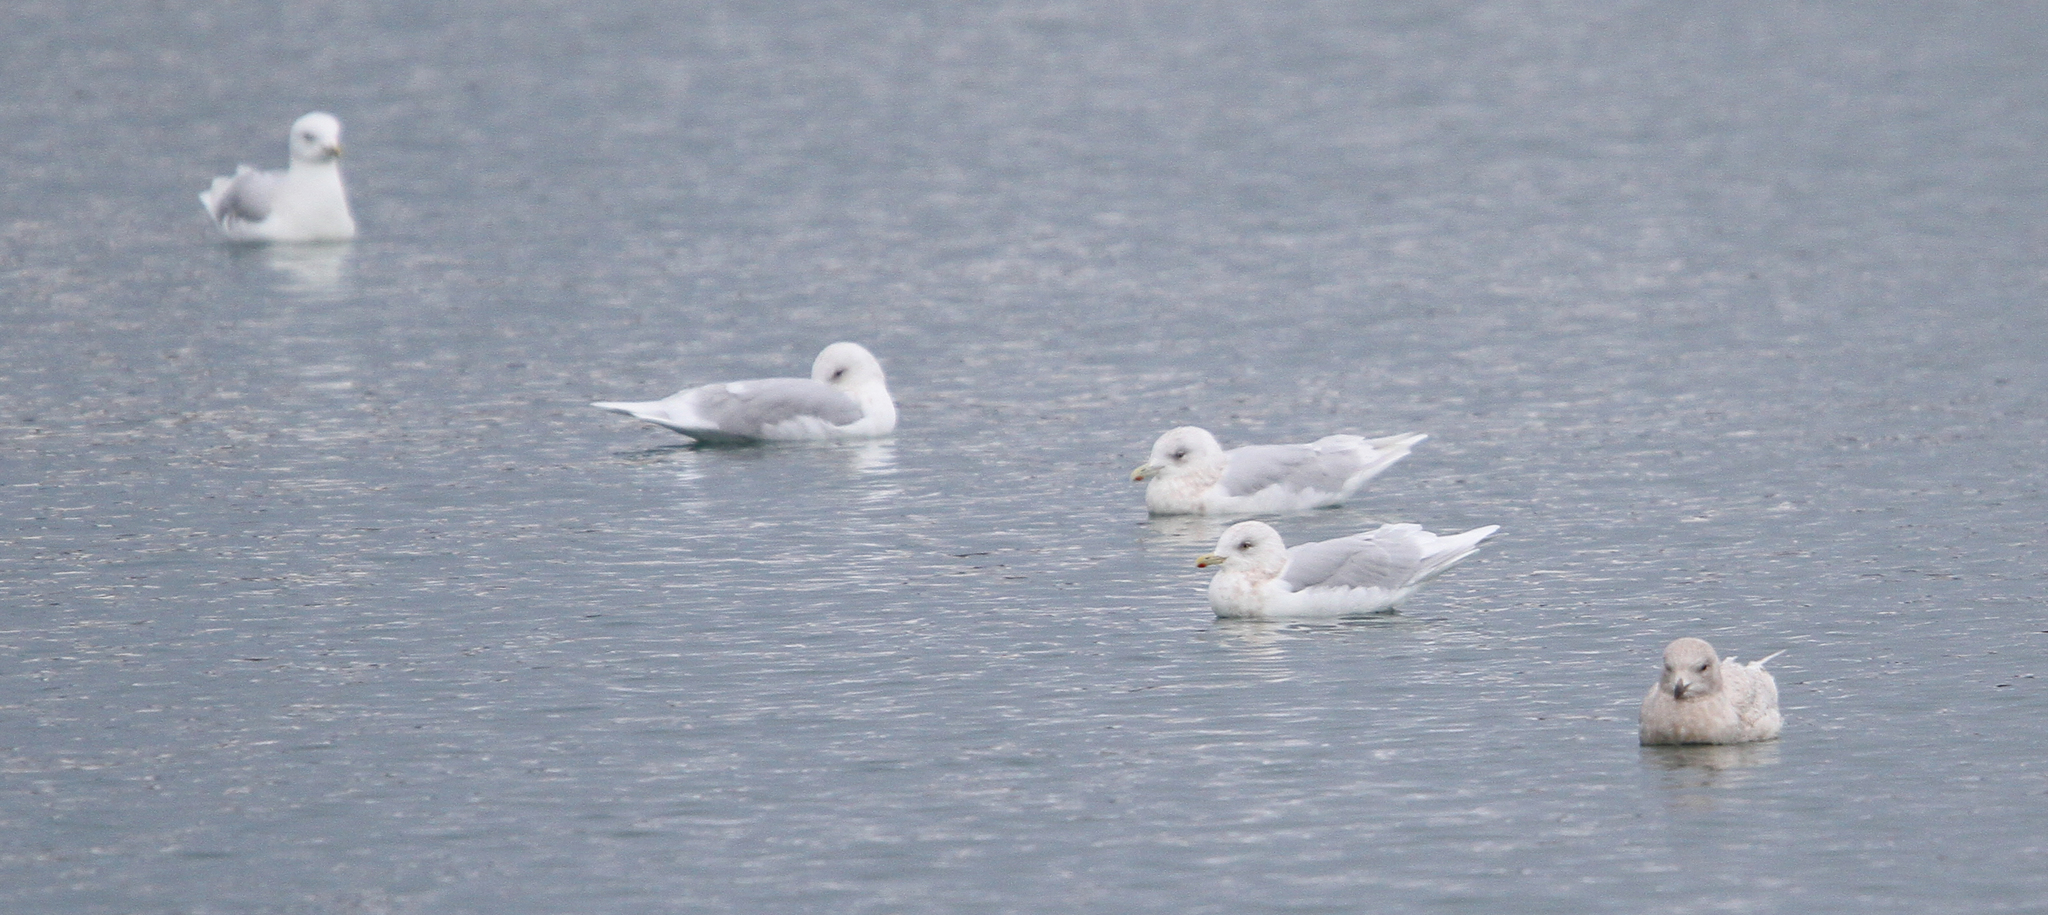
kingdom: Animalia
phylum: Chordata
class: Aves
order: Charadriiformes
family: Laridae
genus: Larus
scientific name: Larus glaucoides
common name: Iceland gull
